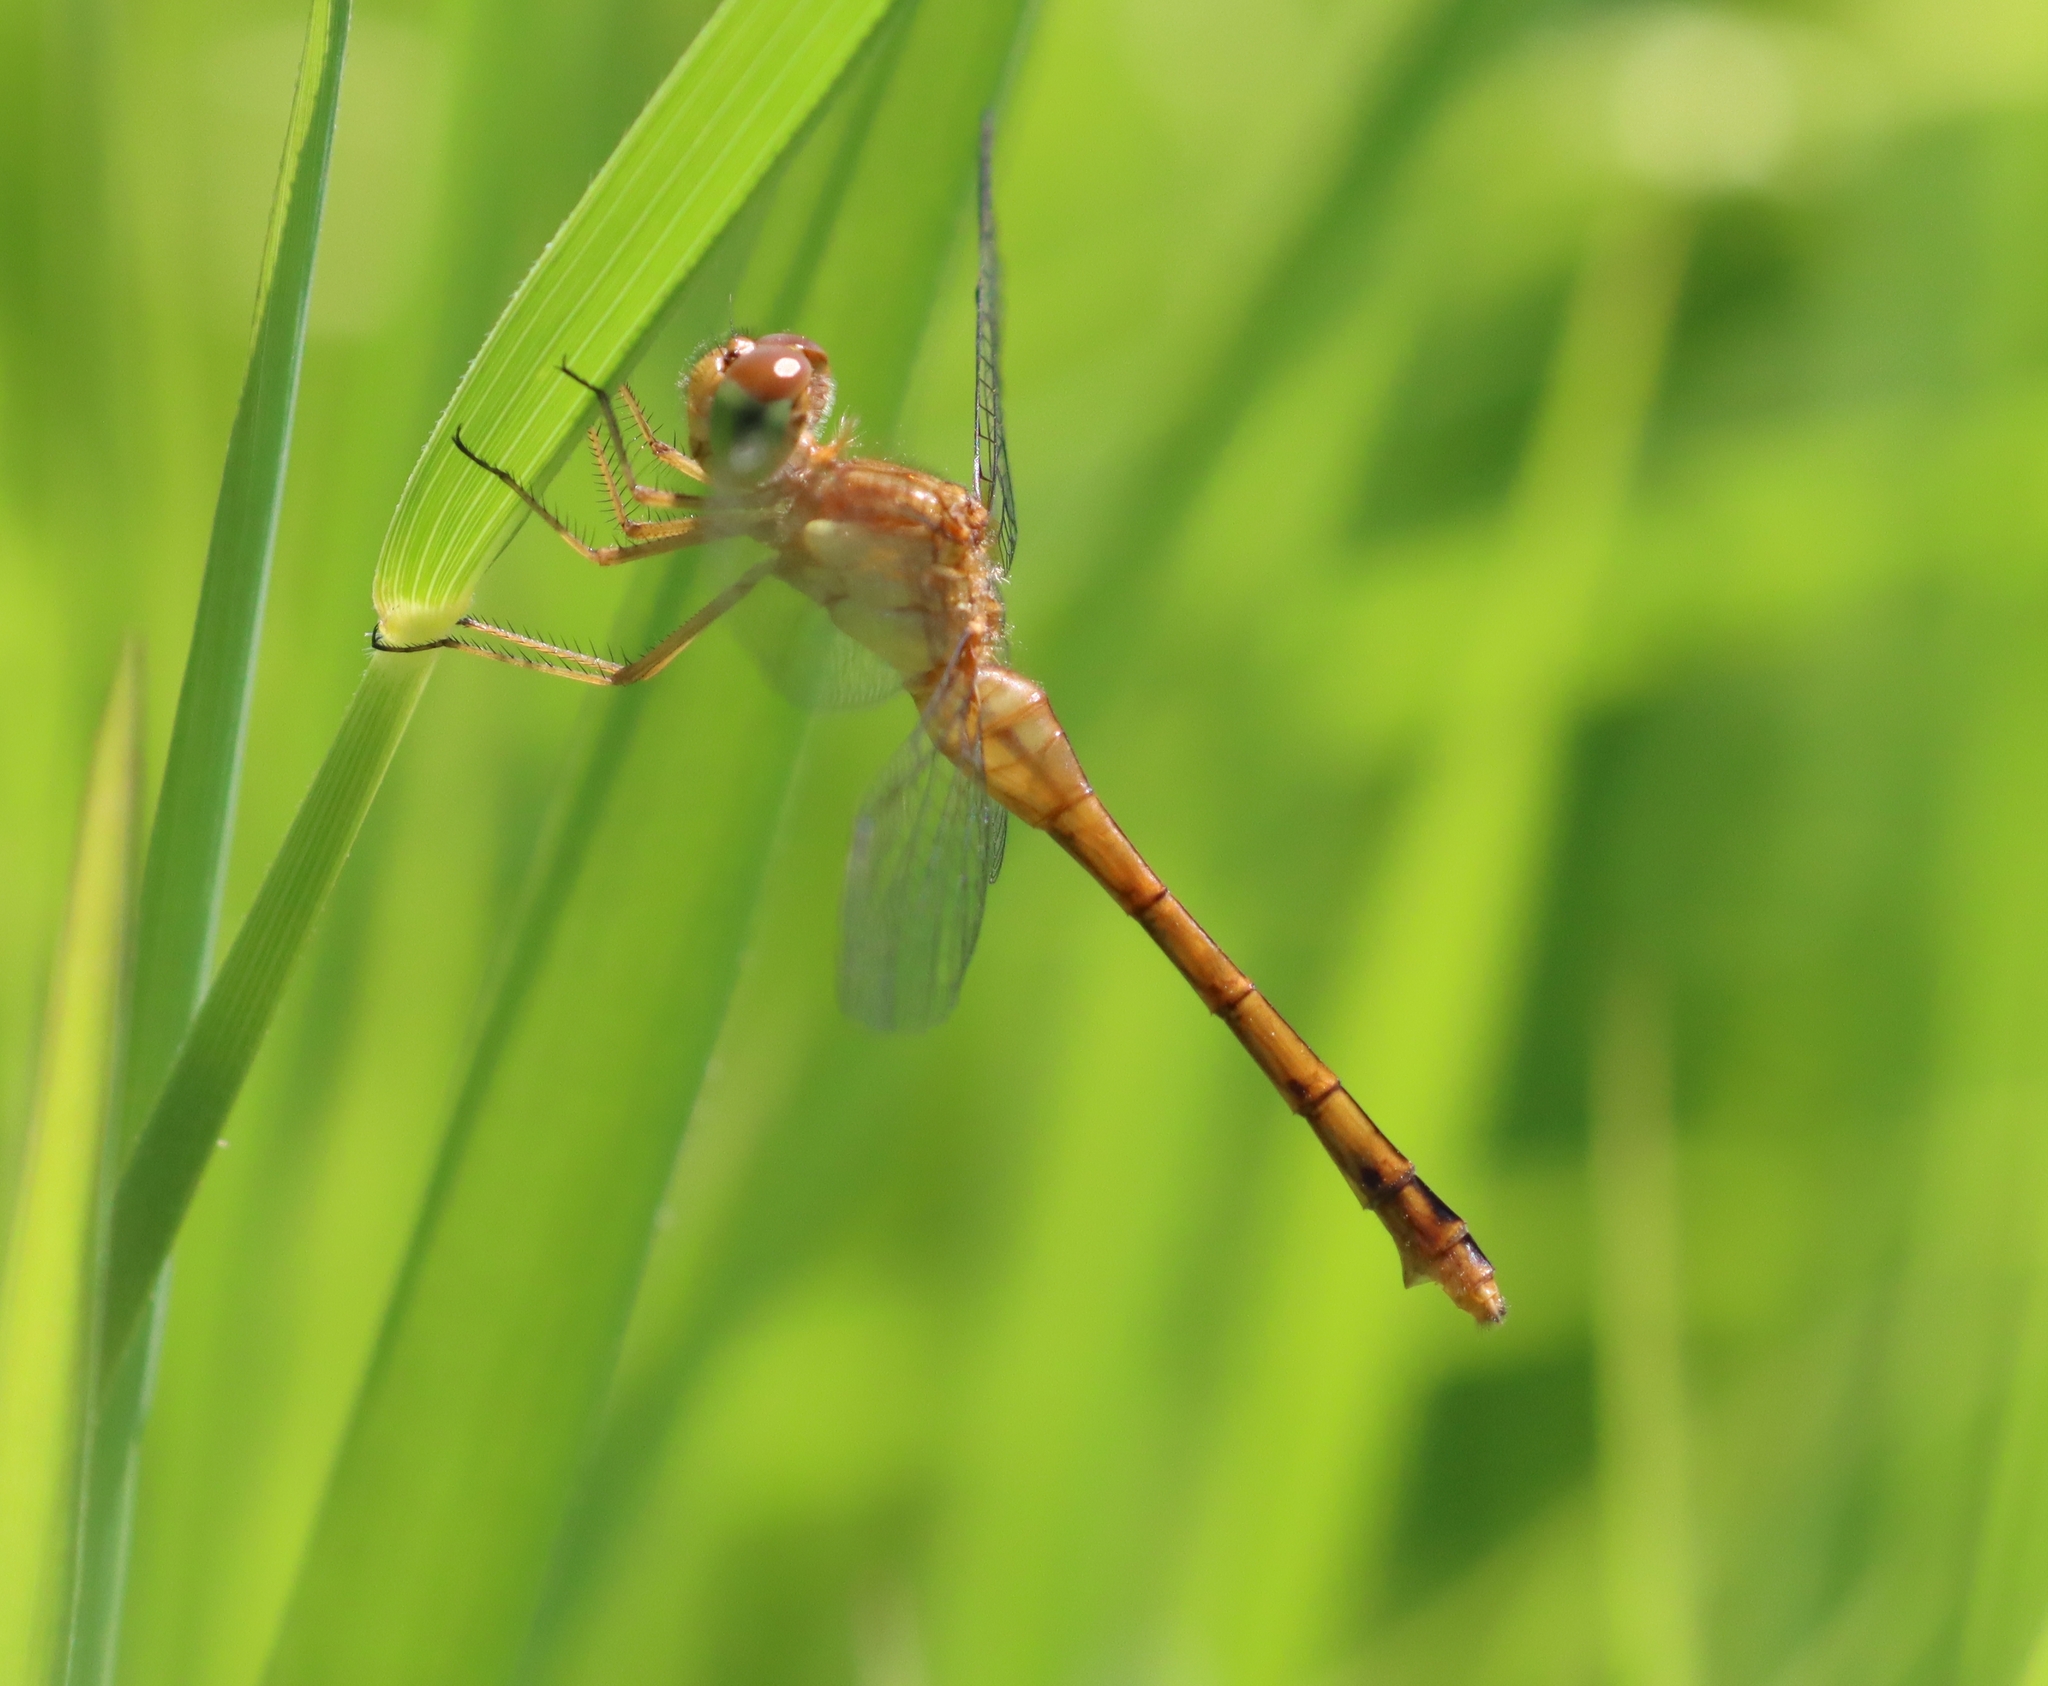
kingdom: Animalia
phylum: Arthropoda
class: Insecta
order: Odonata
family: Libellulidae
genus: Sympetrum
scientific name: Sympetrum vicinum
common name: Autumn meadowhawk
